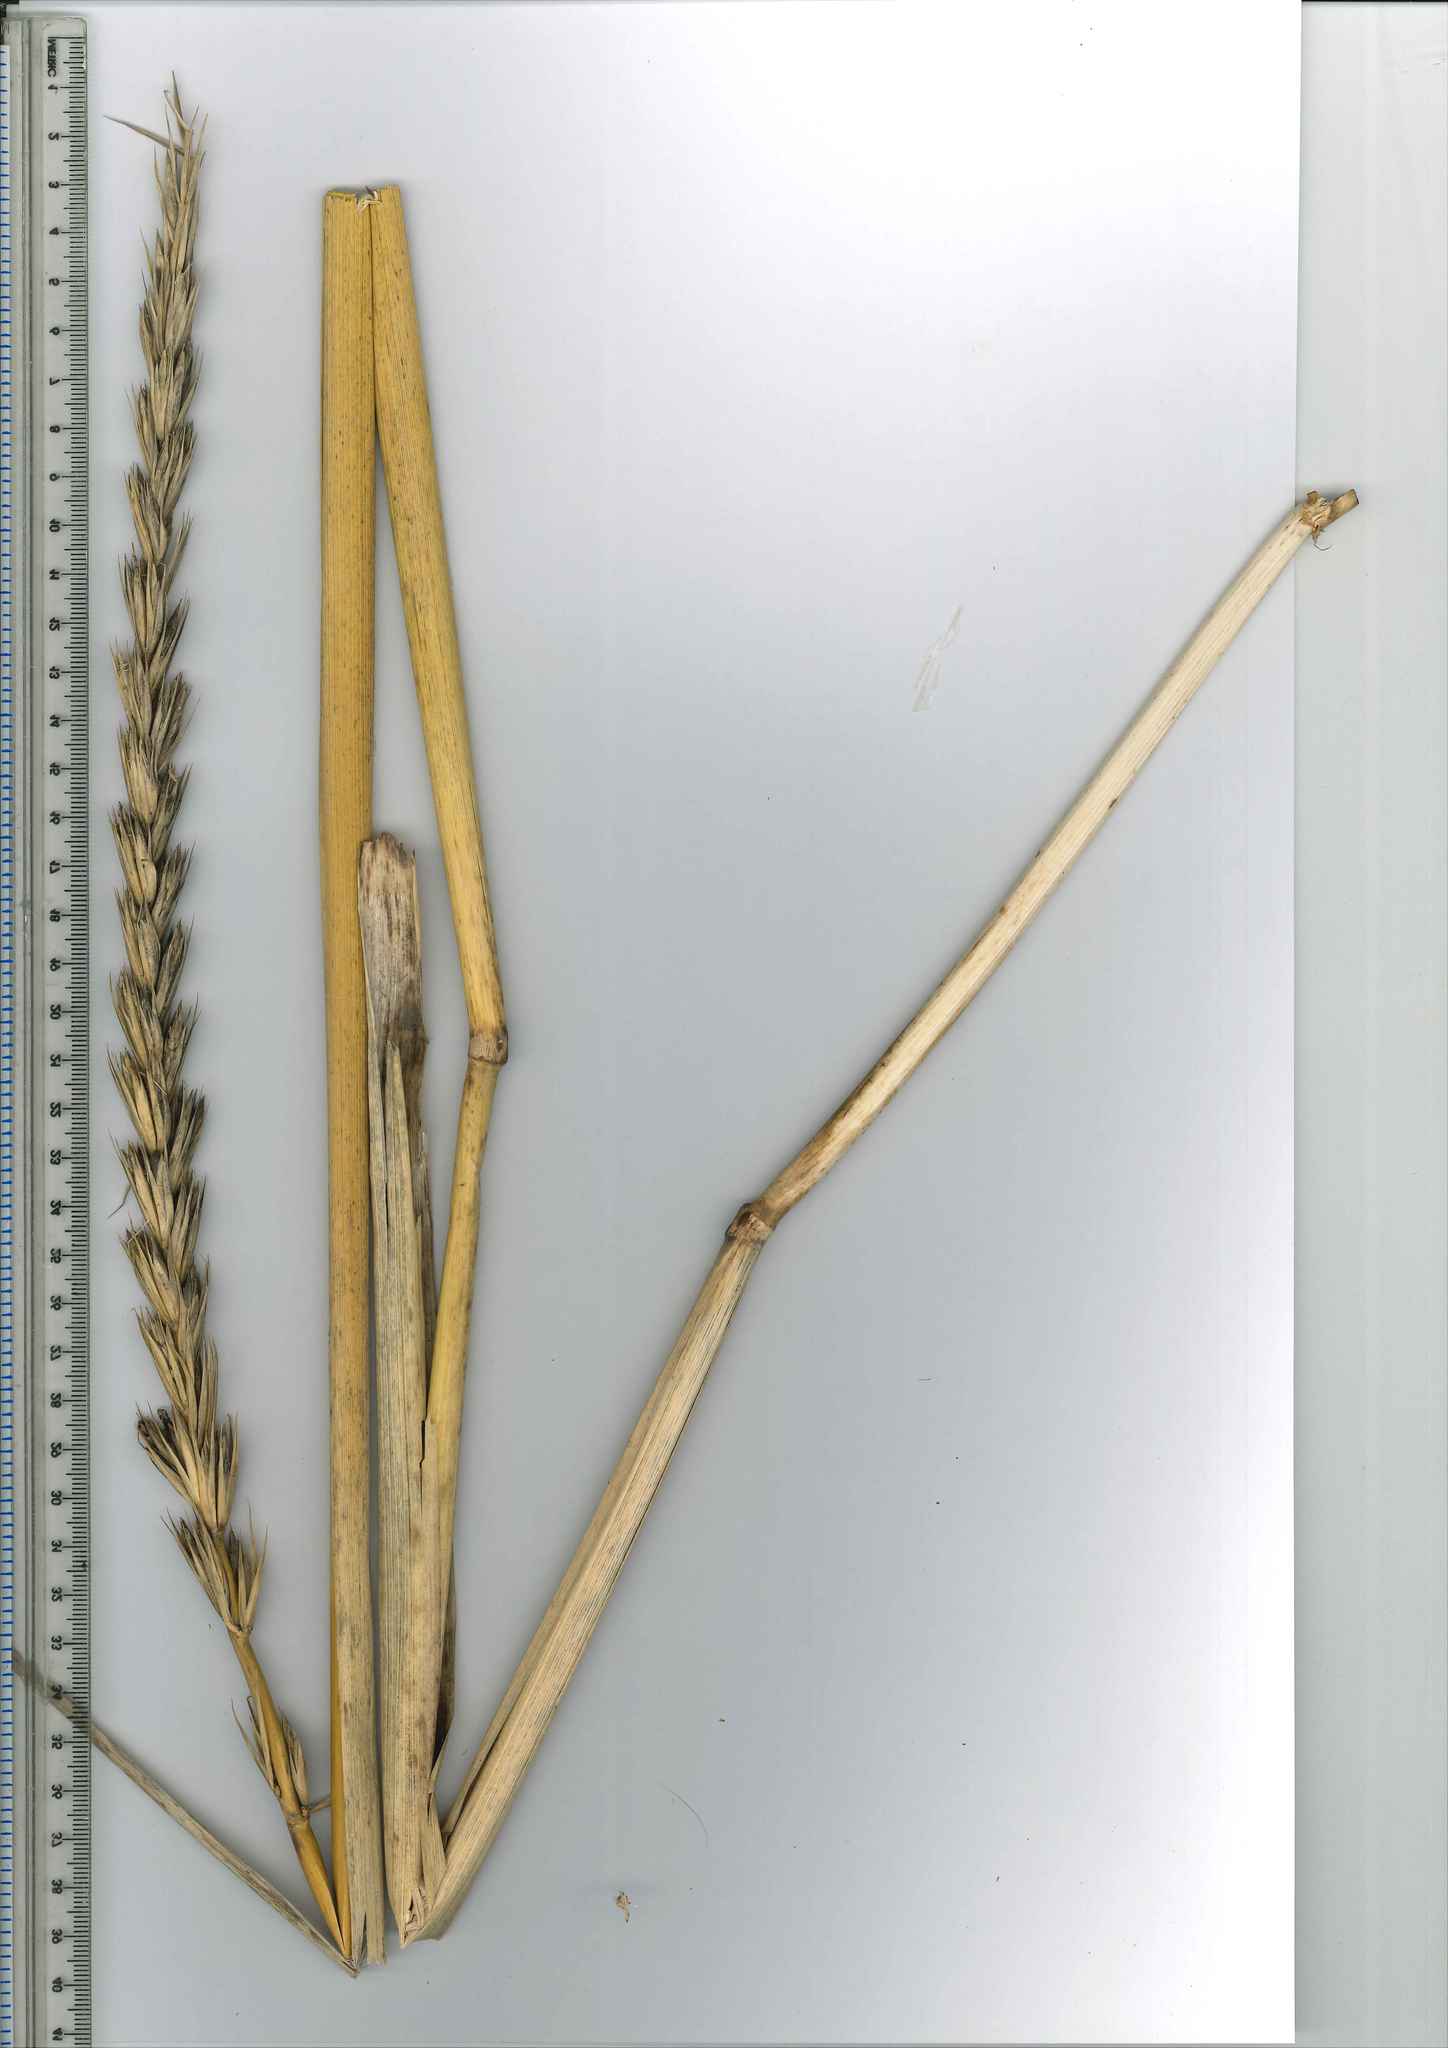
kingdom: Plantae
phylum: Tracheophyta
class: Liliopsida
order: Poales
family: Poaceae
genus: Leymus
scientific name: Leymus racemosus
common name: Mammoth wildrye
